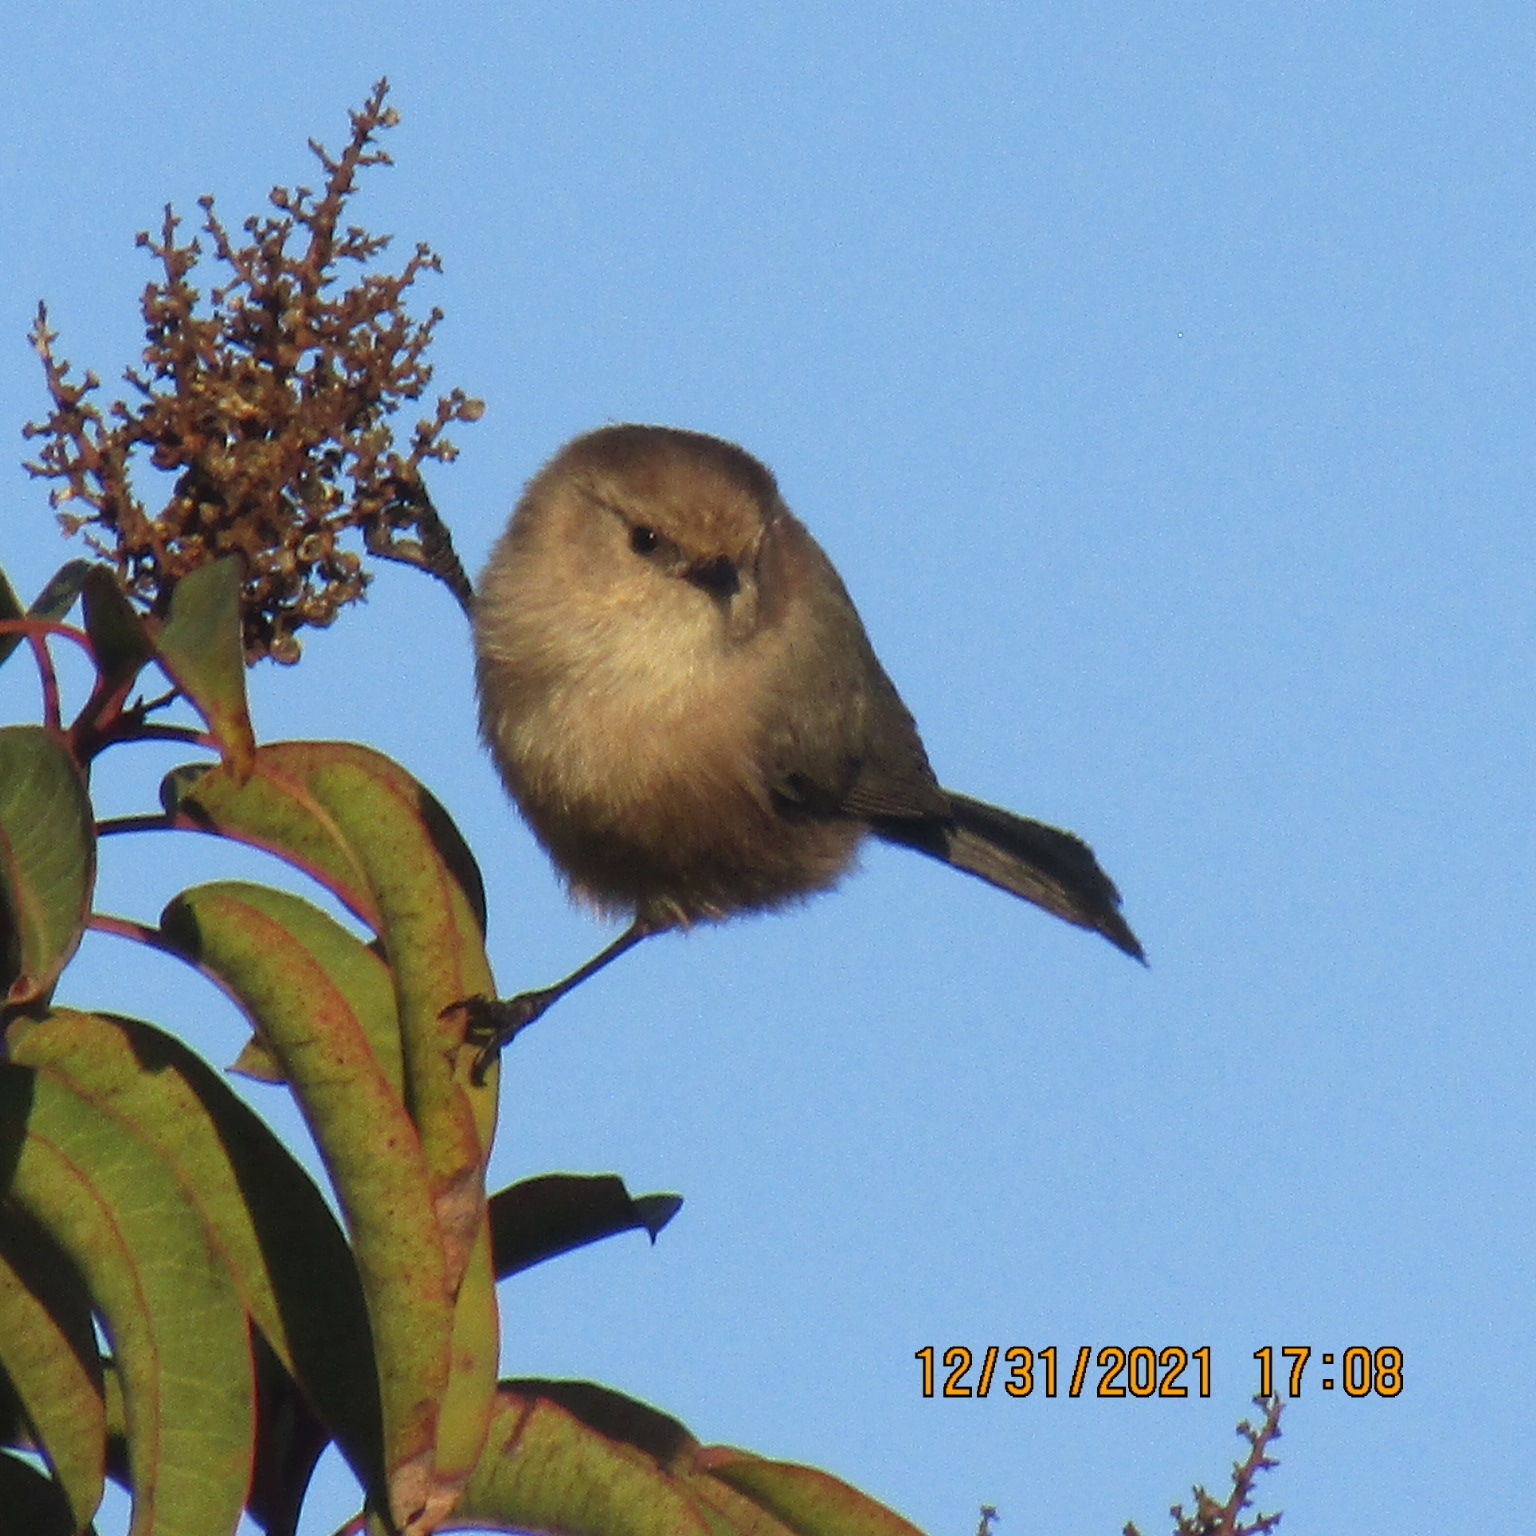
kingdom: Animalia
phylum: Chordata
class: Aves
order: Passeriformes
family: Aegithalidae
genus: Psaltriparus
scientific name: Psaltriparus minimus
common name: American bushtit
